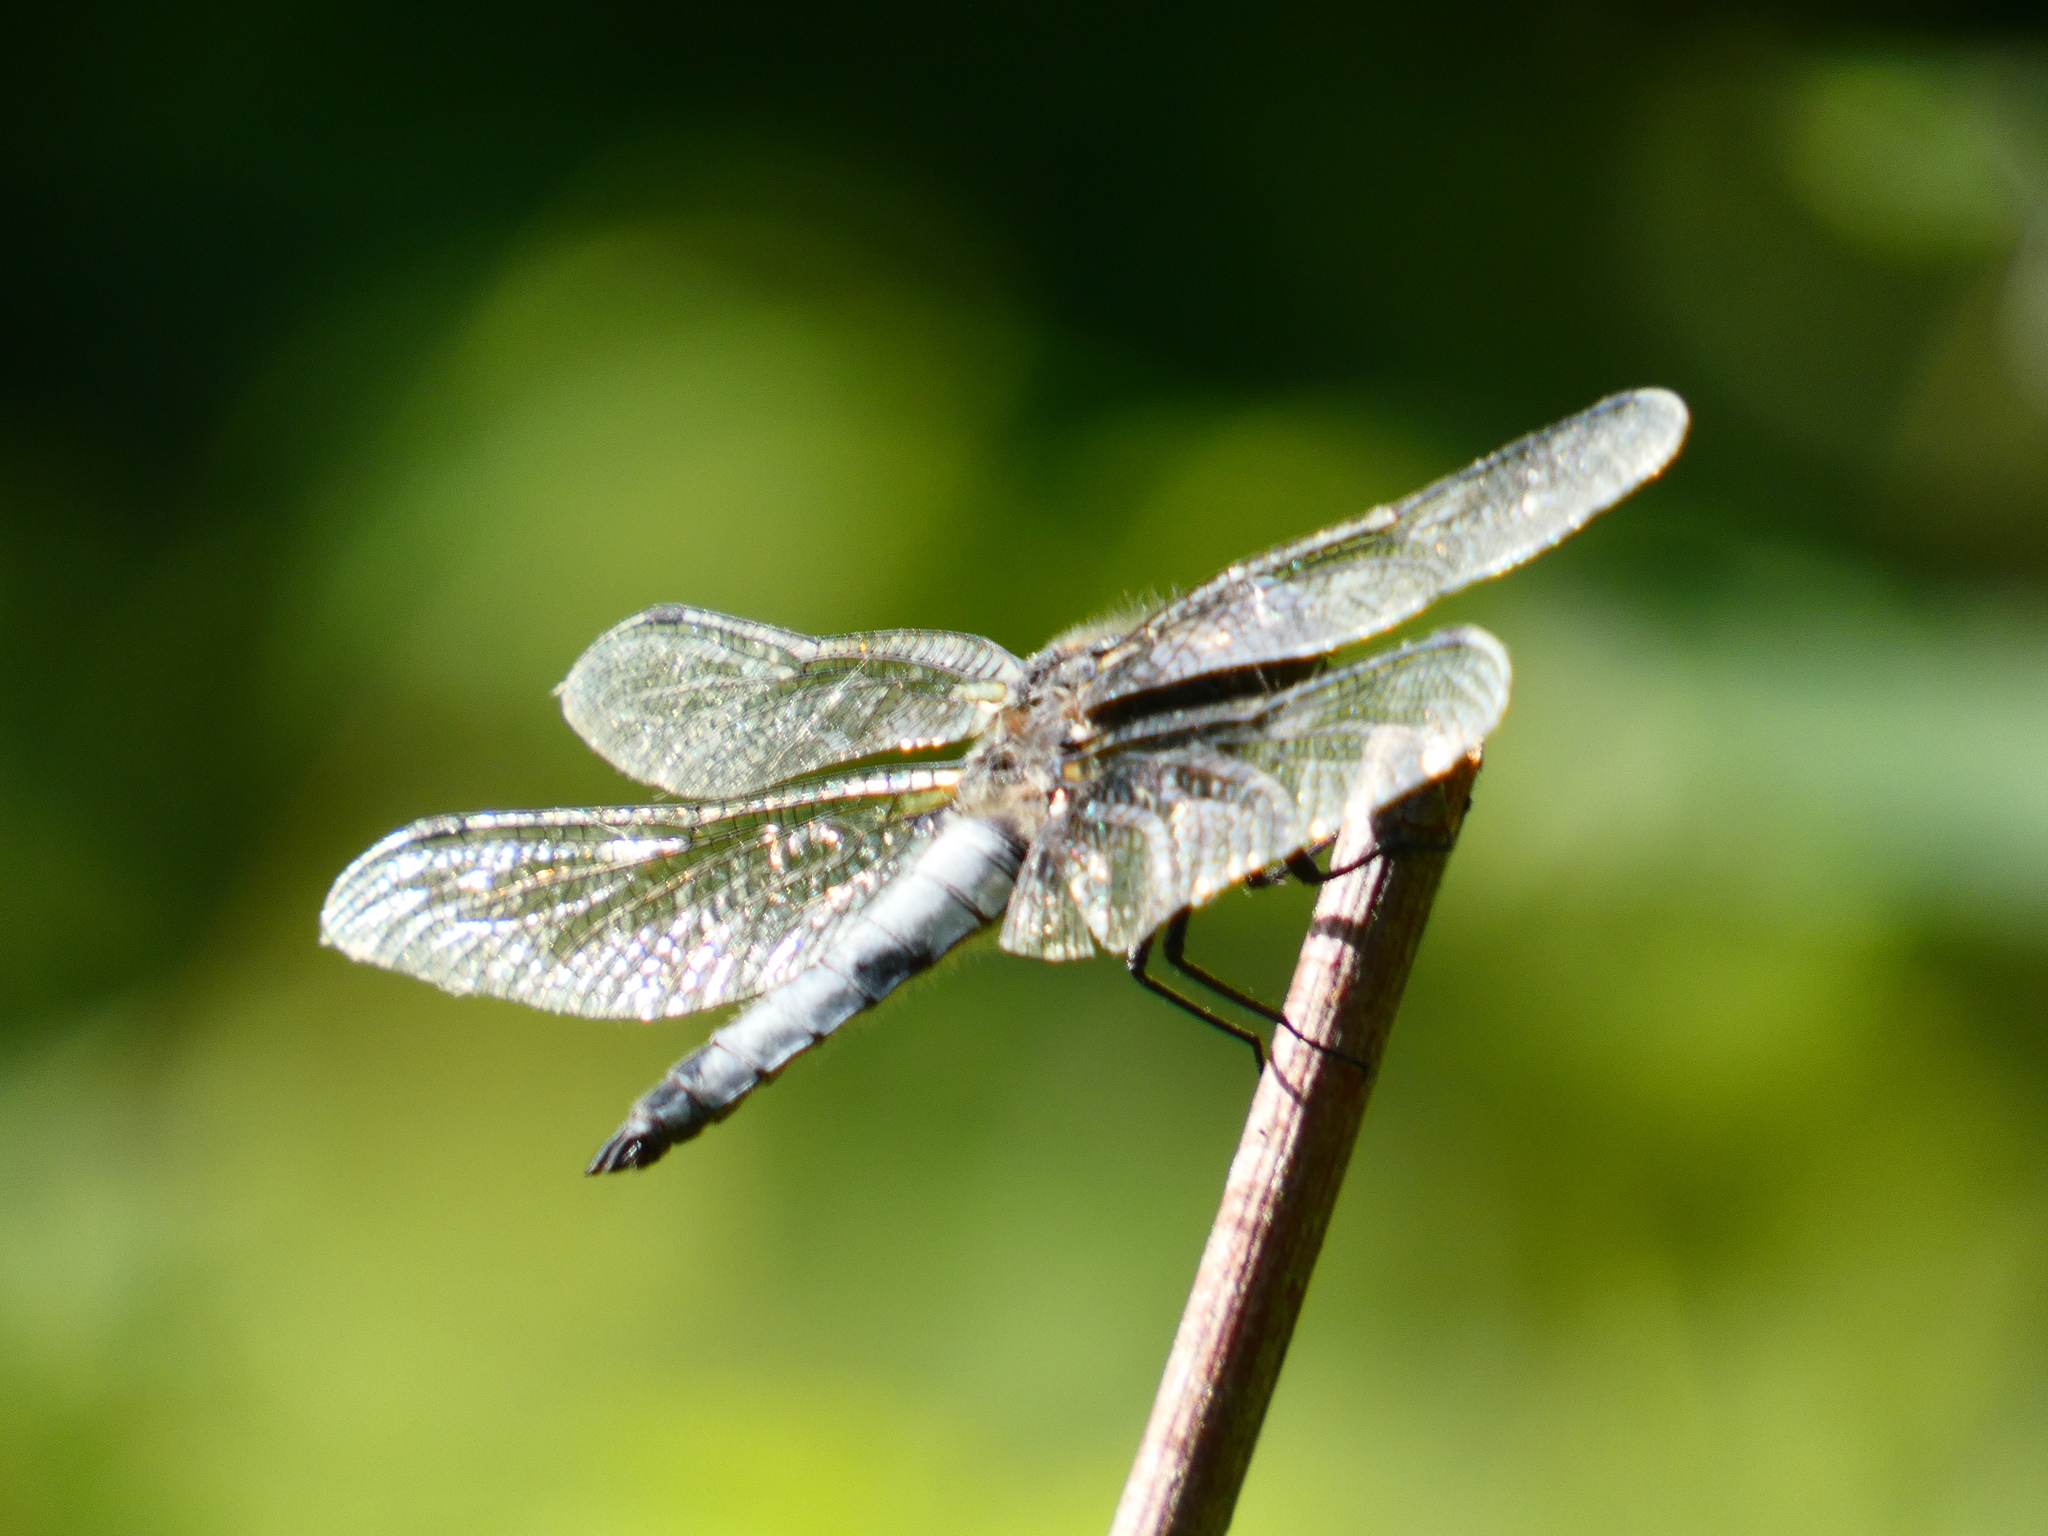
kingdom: Animalia
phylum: Arthropoda
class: Insecta
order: Odonata
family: Libellulidae
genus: Libellula
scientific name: Libellula fulva
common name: Blue chaser
